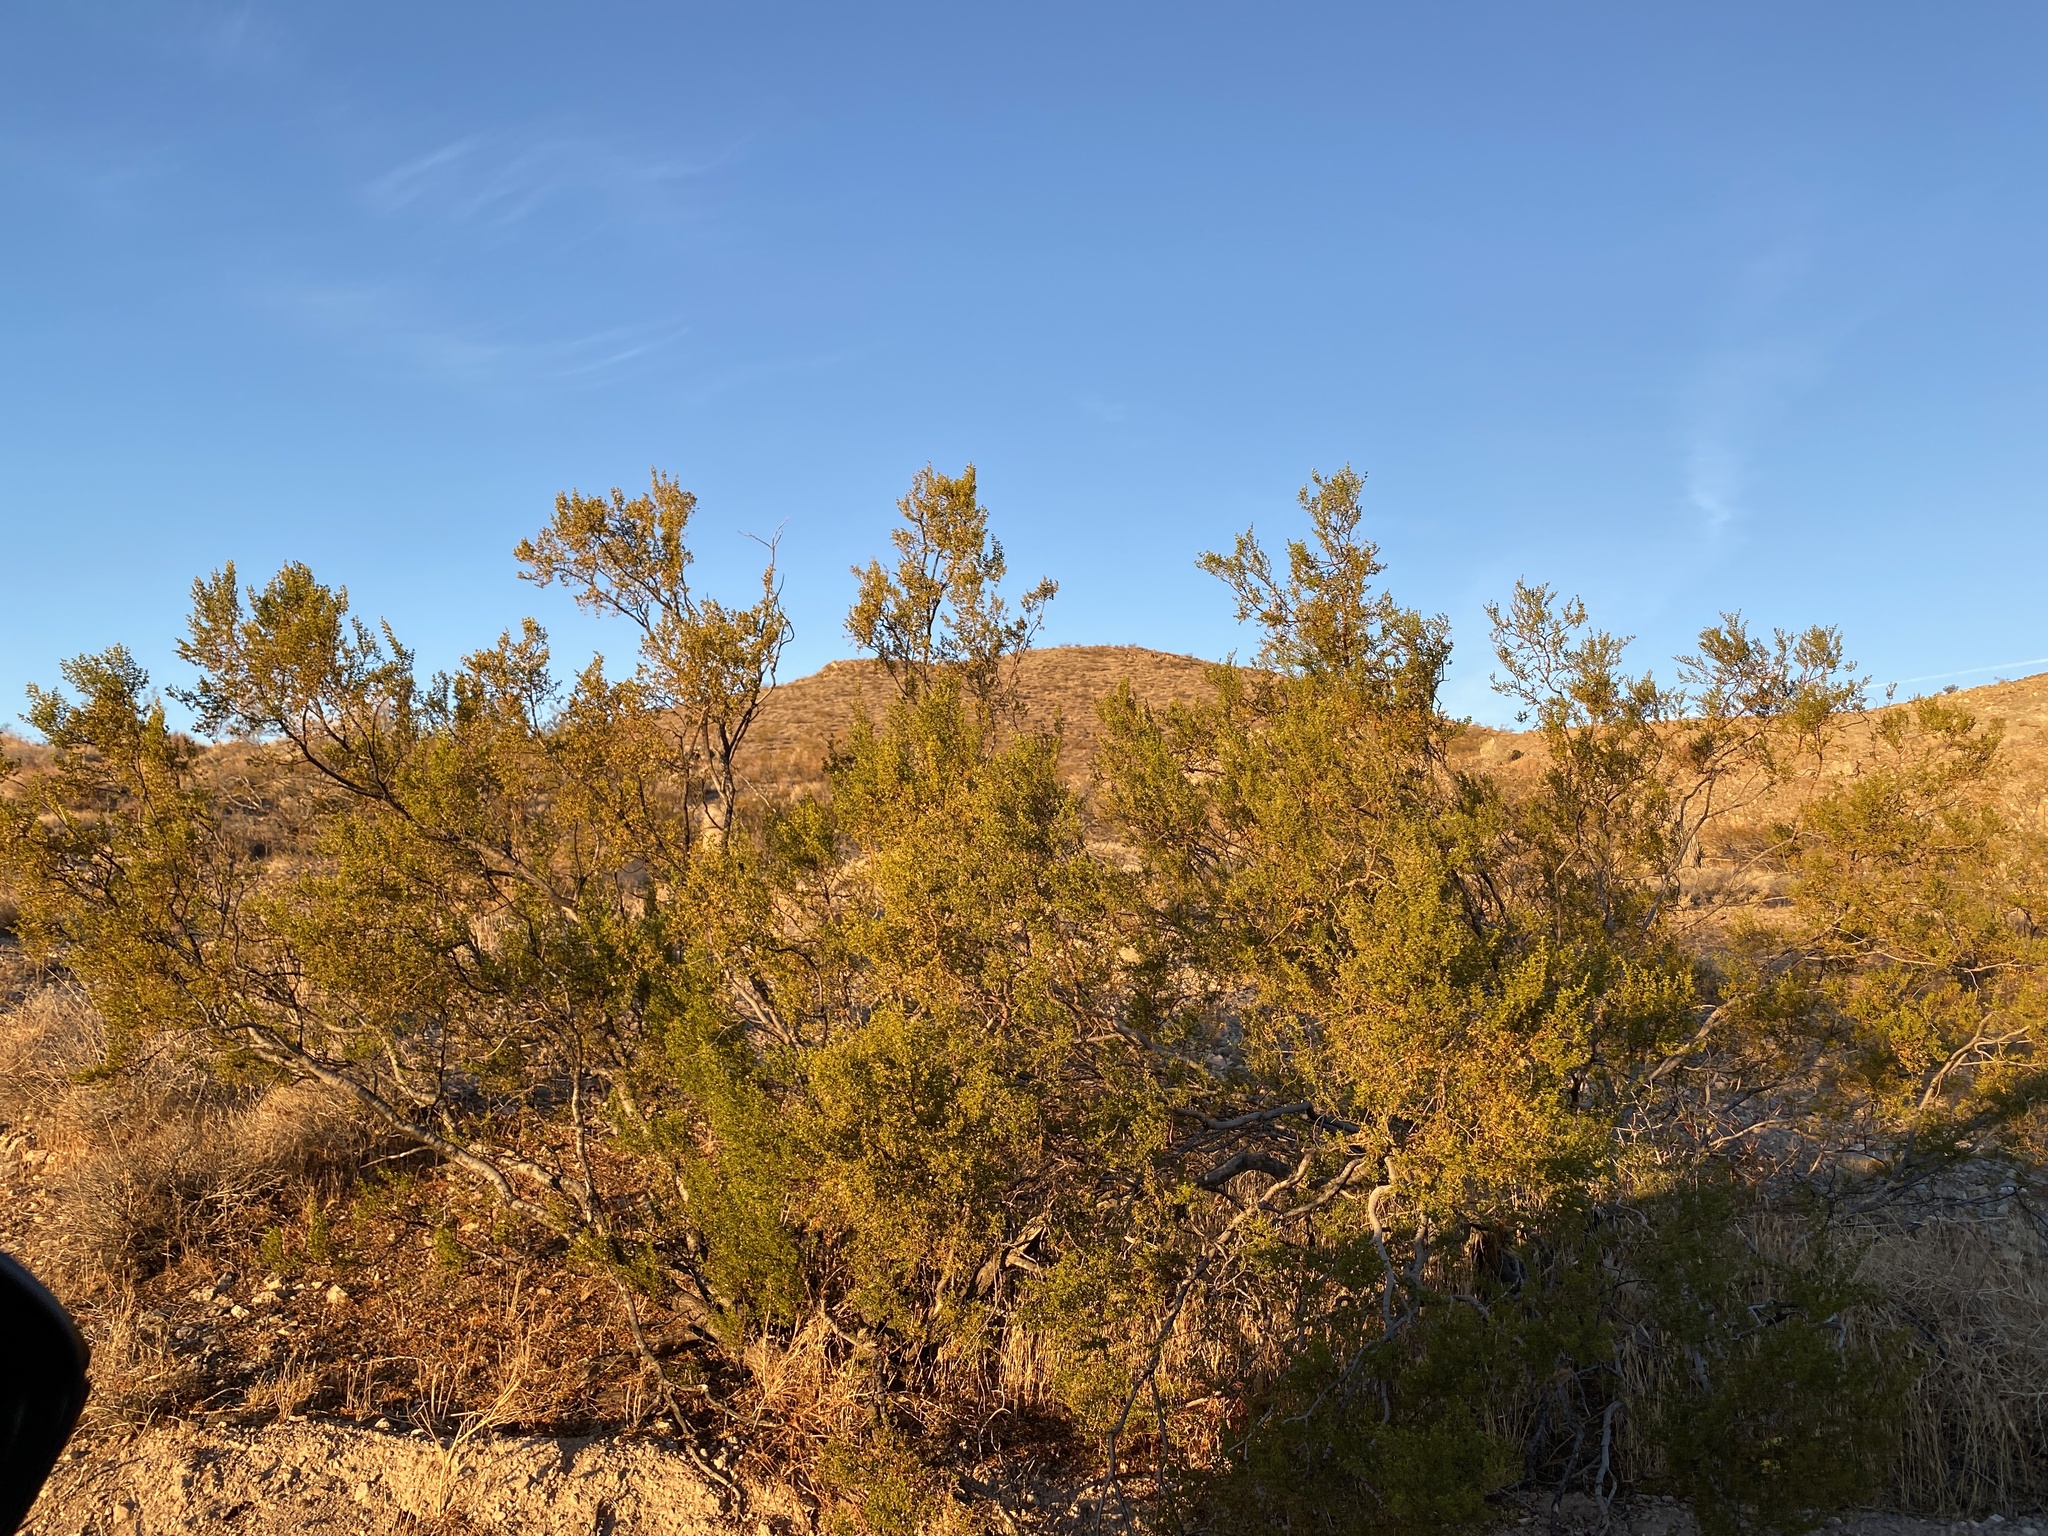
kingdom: Plantae
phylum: Tracheophyta
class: Magnoliopsida
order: Zygophyllales
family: Zygophyllaceae
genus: Larrea
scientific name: Larrea tridentata
